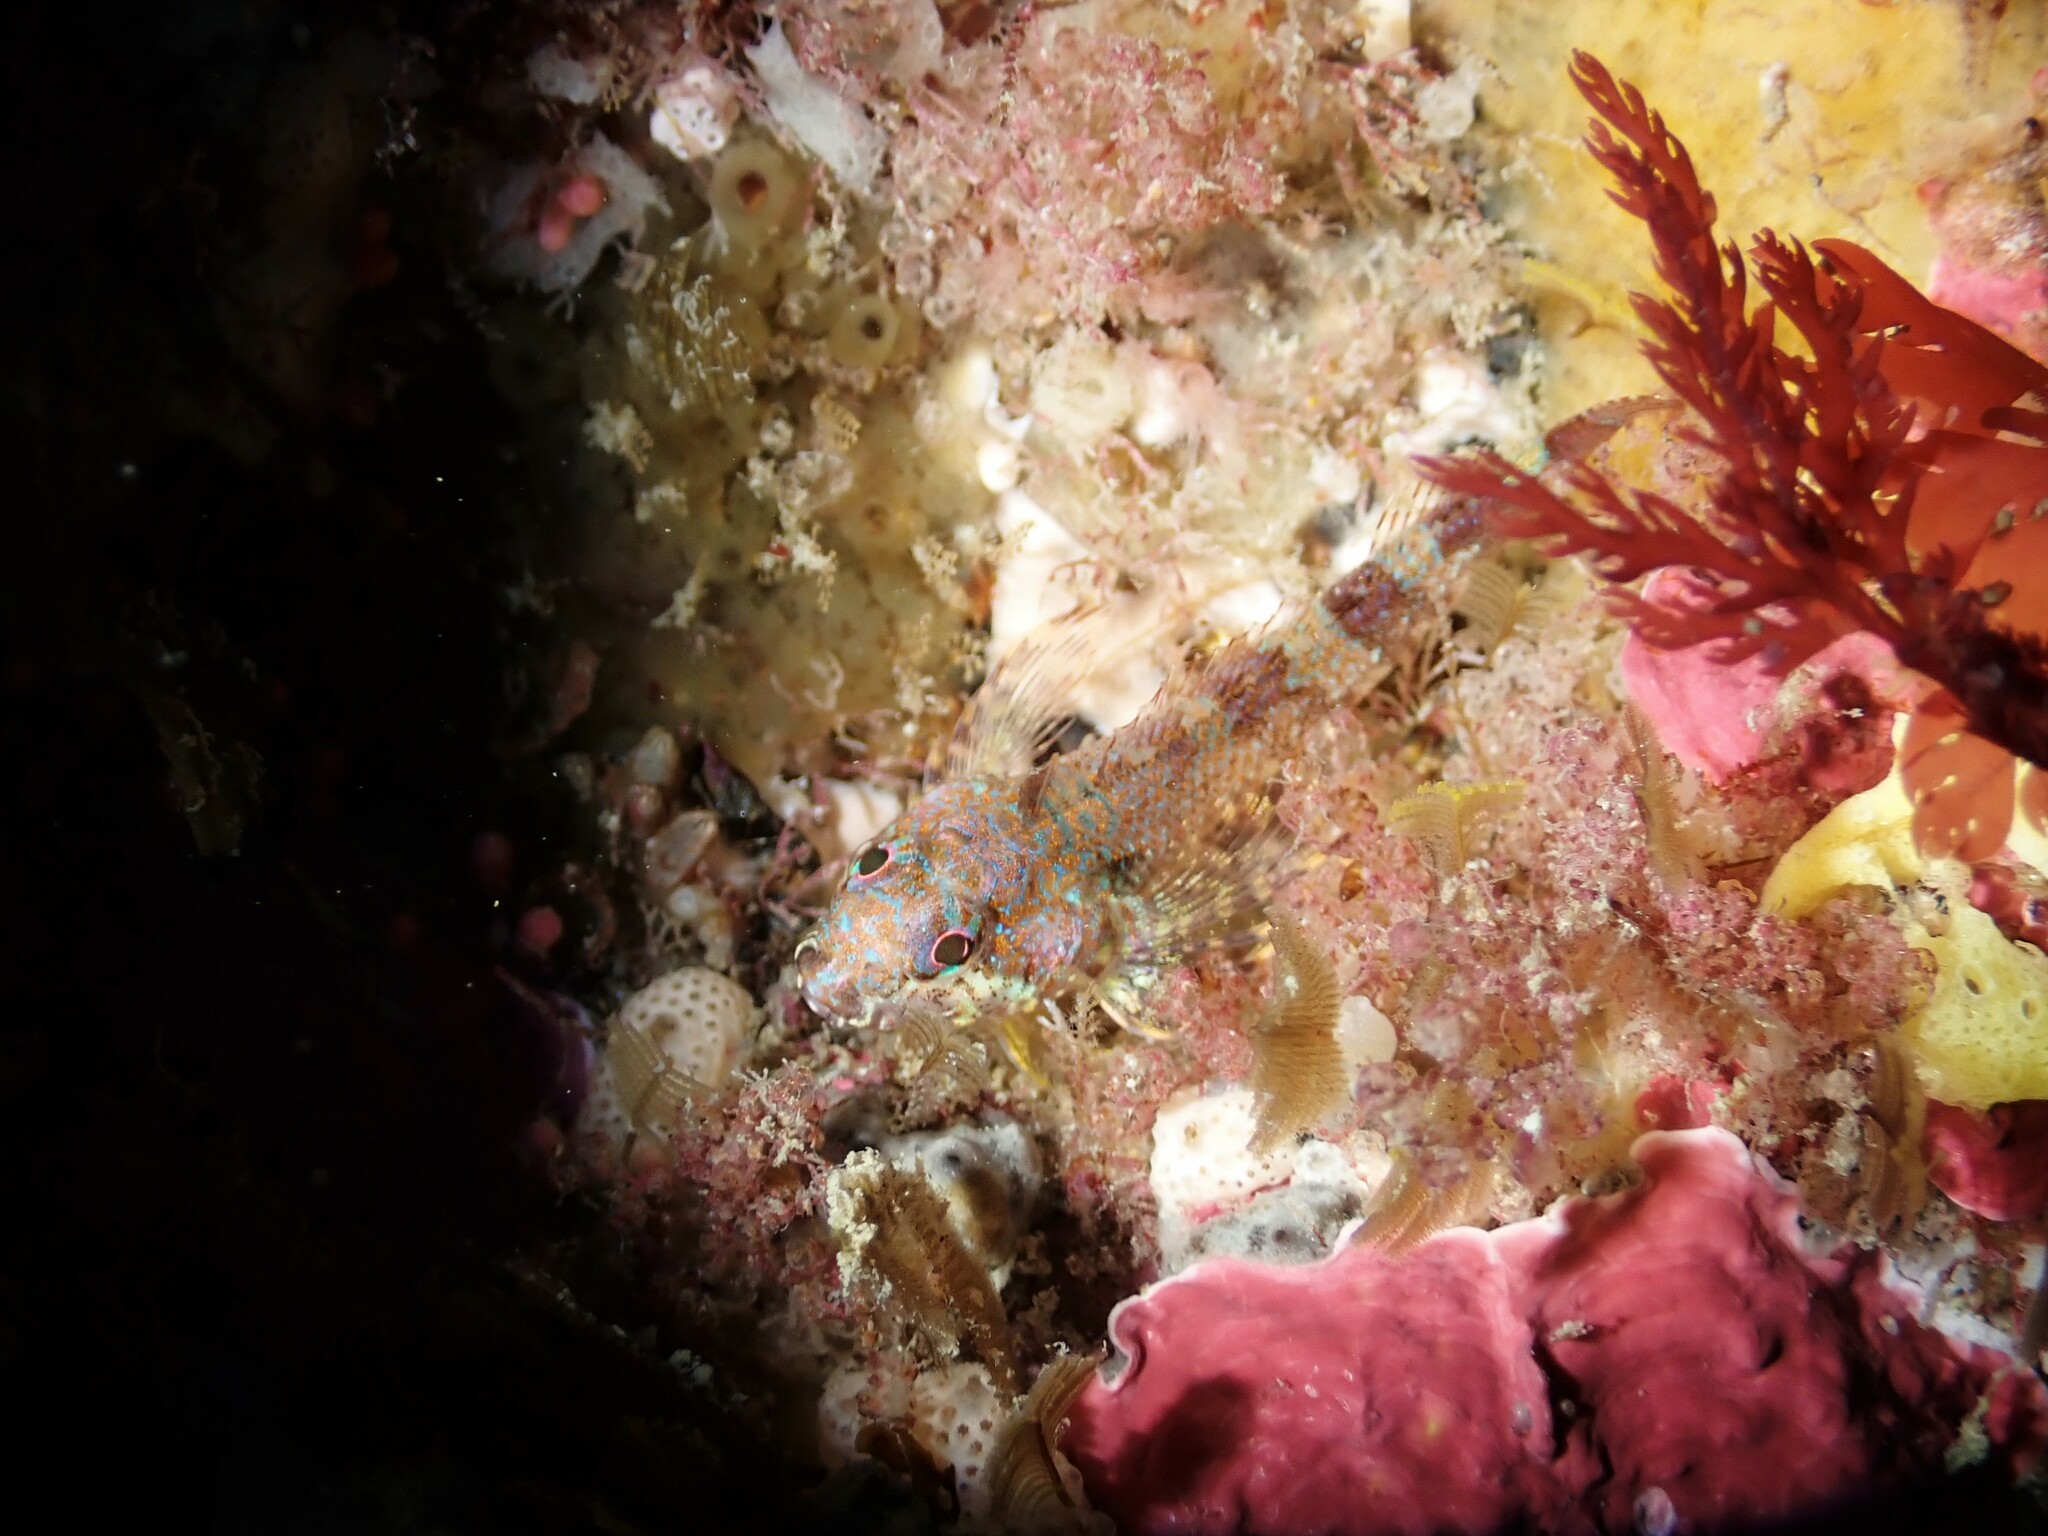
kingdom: Animalia
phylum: Chordata
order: Perciformes
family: Tripterygiidae
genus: Cryptichthys
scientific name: Cryptichthys jojettae
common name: Cryptic triplefin
